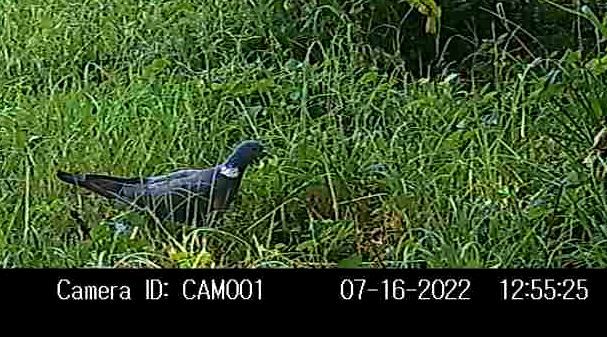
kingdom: Animalia
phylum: Chordata
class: Aves
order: Columbiformes
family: Columbidae
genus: Columba
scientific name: Columba palumbus
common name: Common wood pigeon
